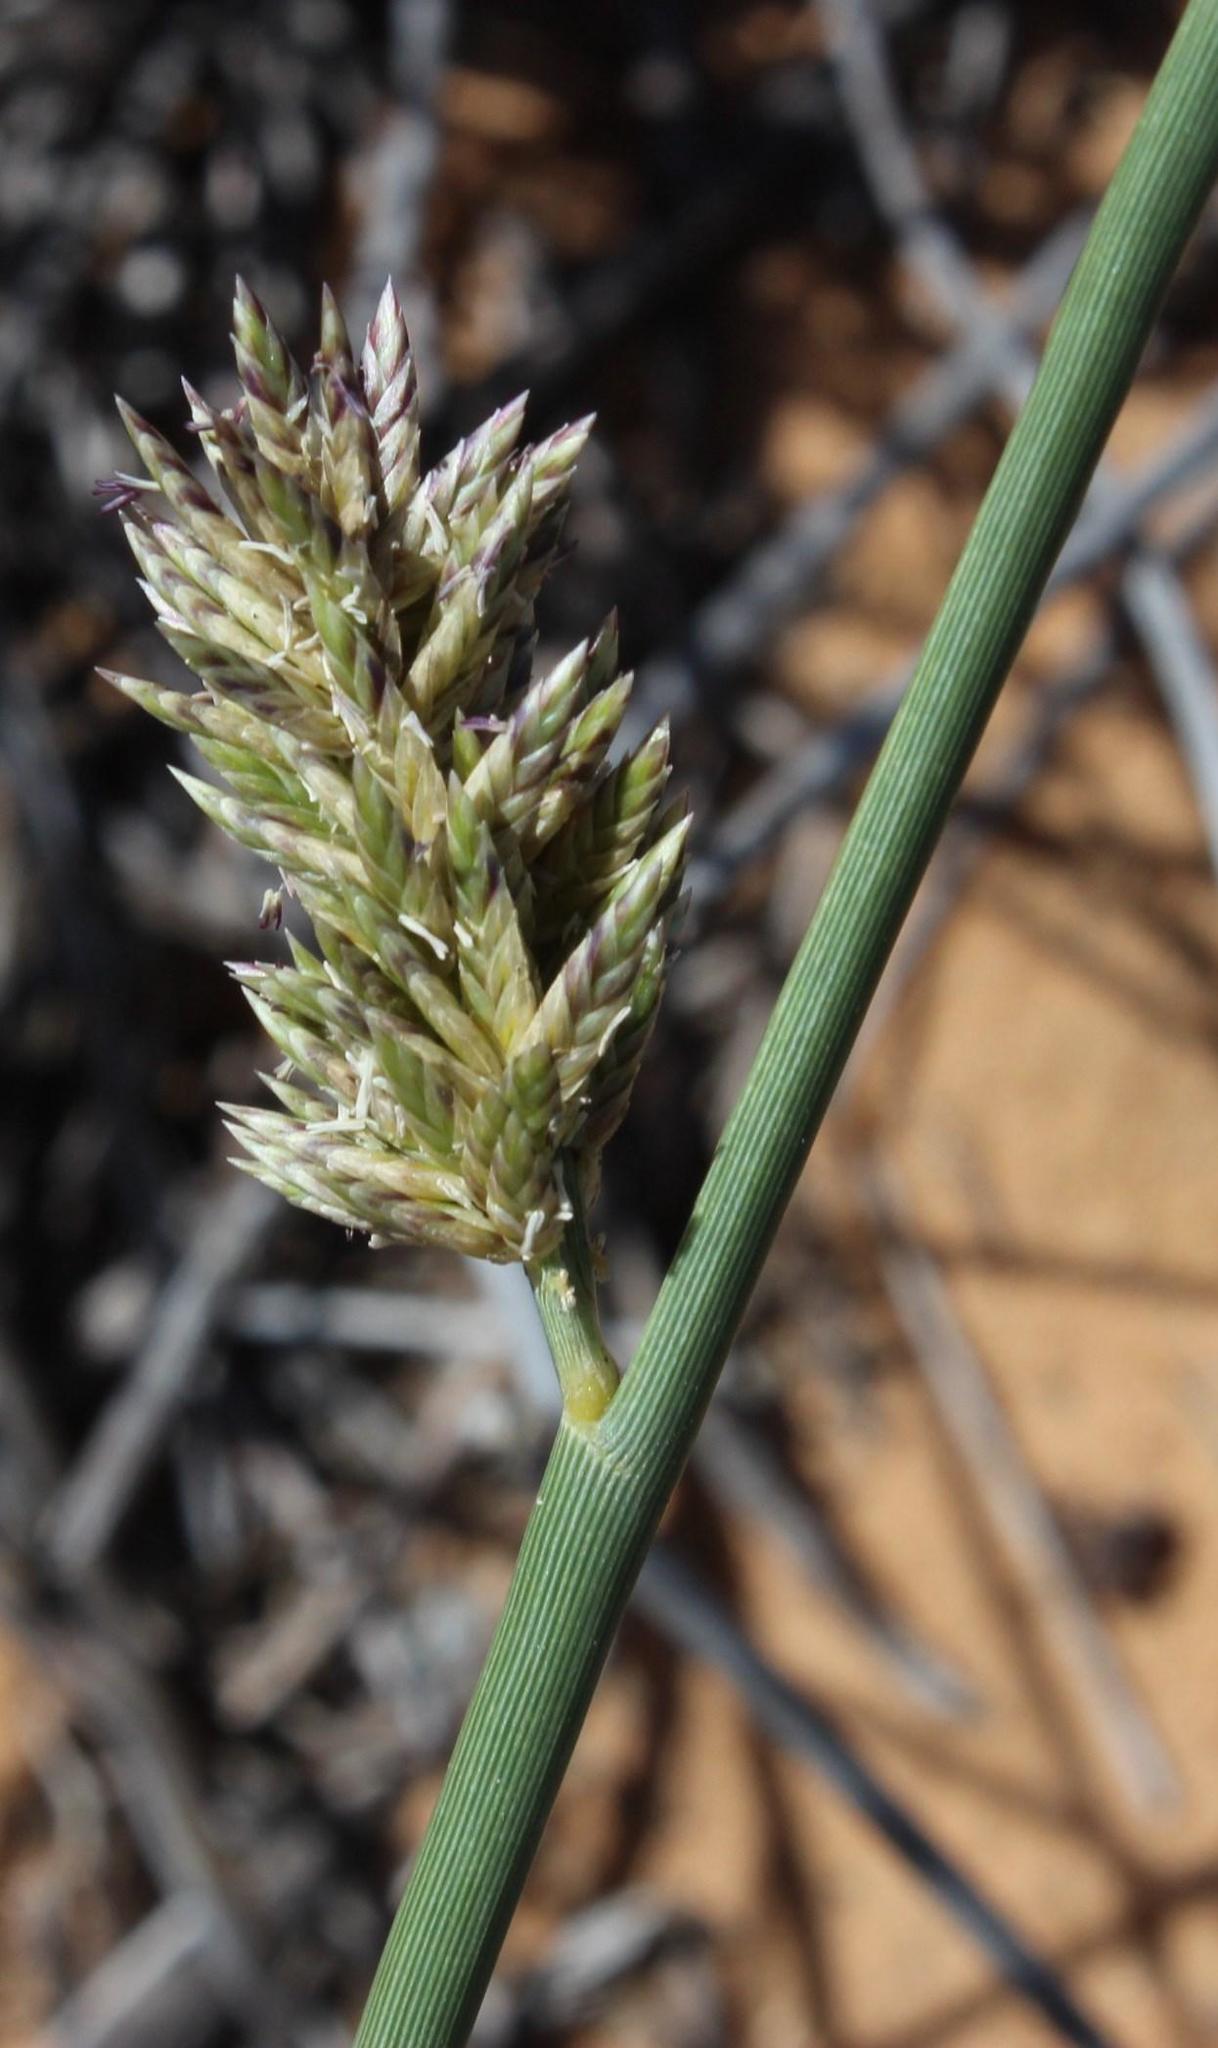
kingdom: Plantae
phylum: Tracheophyta
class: Liliopsida
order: Poales
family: Poaceae
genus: Cladoraphis
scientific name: Cladoraphis cyperoides
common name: Bristly lovegrass
